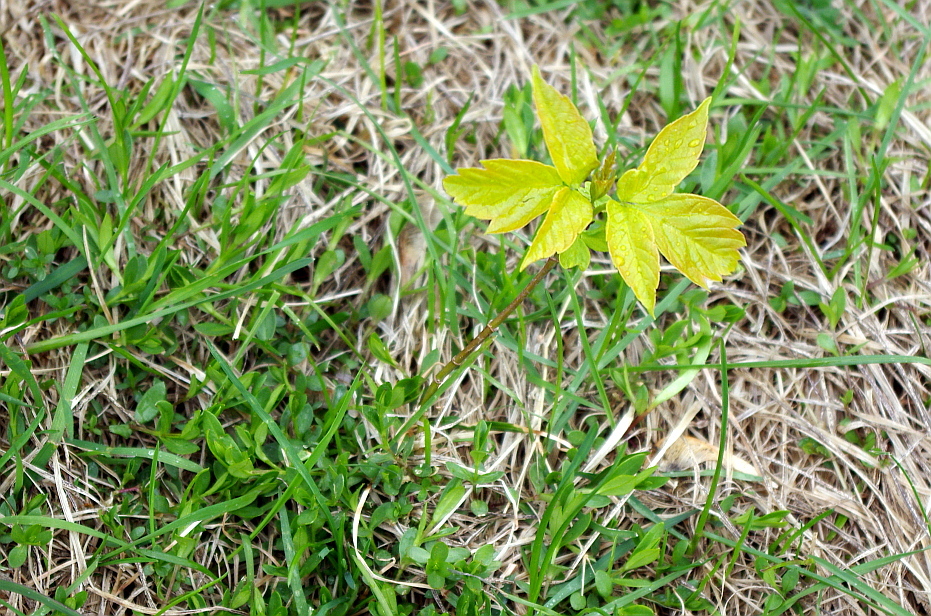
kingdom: Plantae
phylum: Tracheophyta
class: Magnoliopsida
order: Sapindales
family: Sapindaceae
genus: Acer
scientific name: Acer negundo
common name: Ashleaf maple
